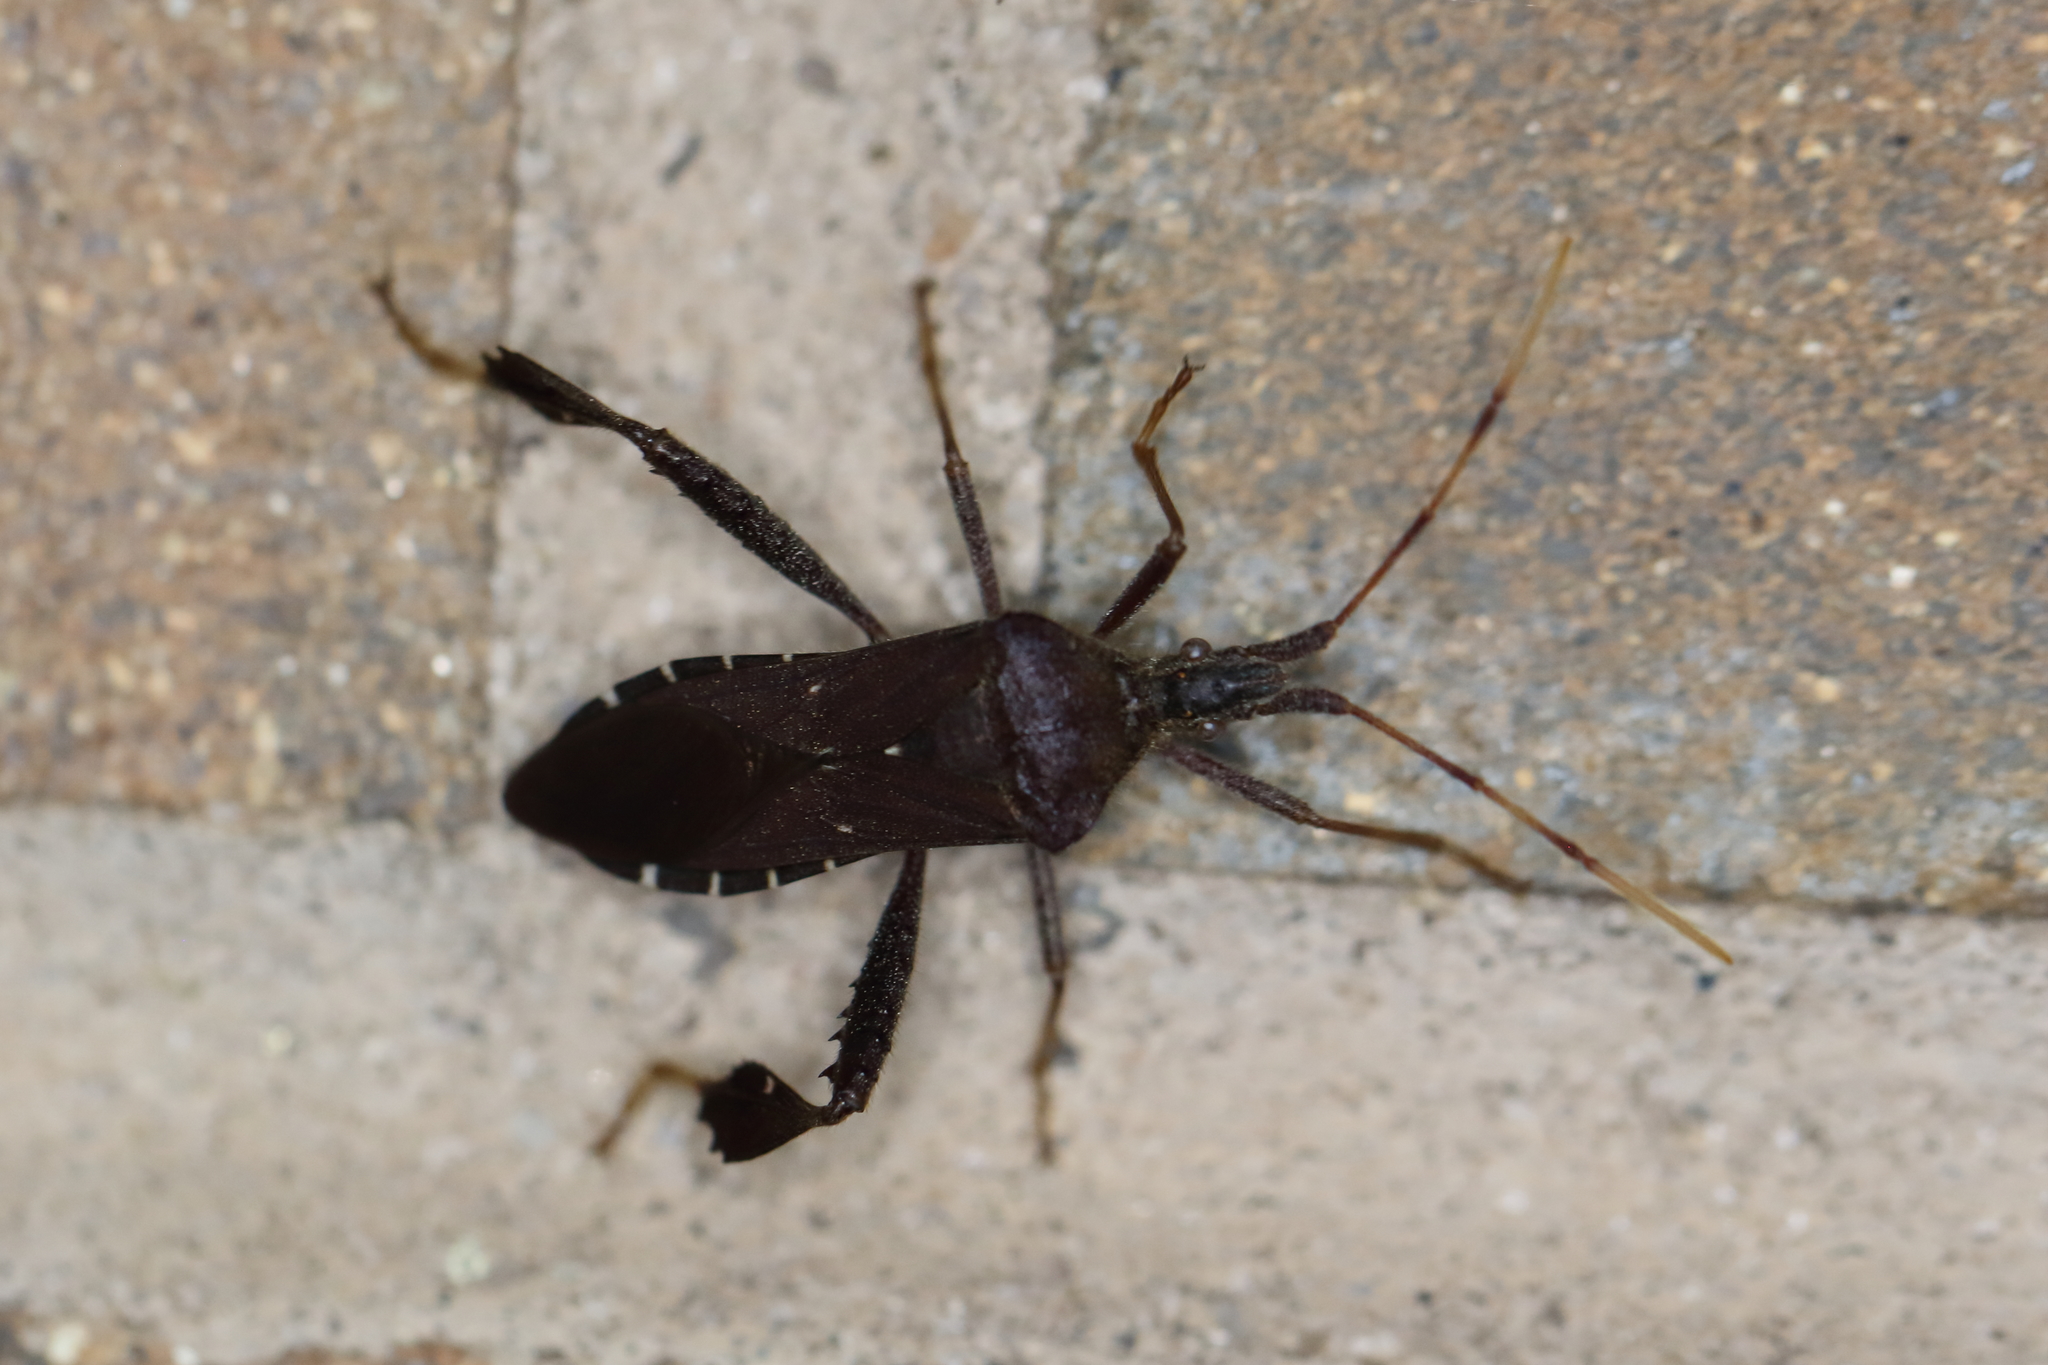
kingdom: Animalia
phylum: Arthropoda
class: Insecta
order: Hemiptera
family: Coreidae
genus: Leptoglossus
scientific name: Leptoglossus oppositus
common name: Northern leaf-footed bug
